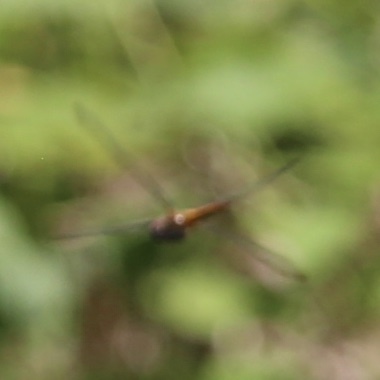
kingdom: Animalia
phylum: Arthropoda
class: Insecta
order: Odonata
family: Libellulidae
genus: Pantala
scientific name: Pantala flavescens
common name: Wandering glider
